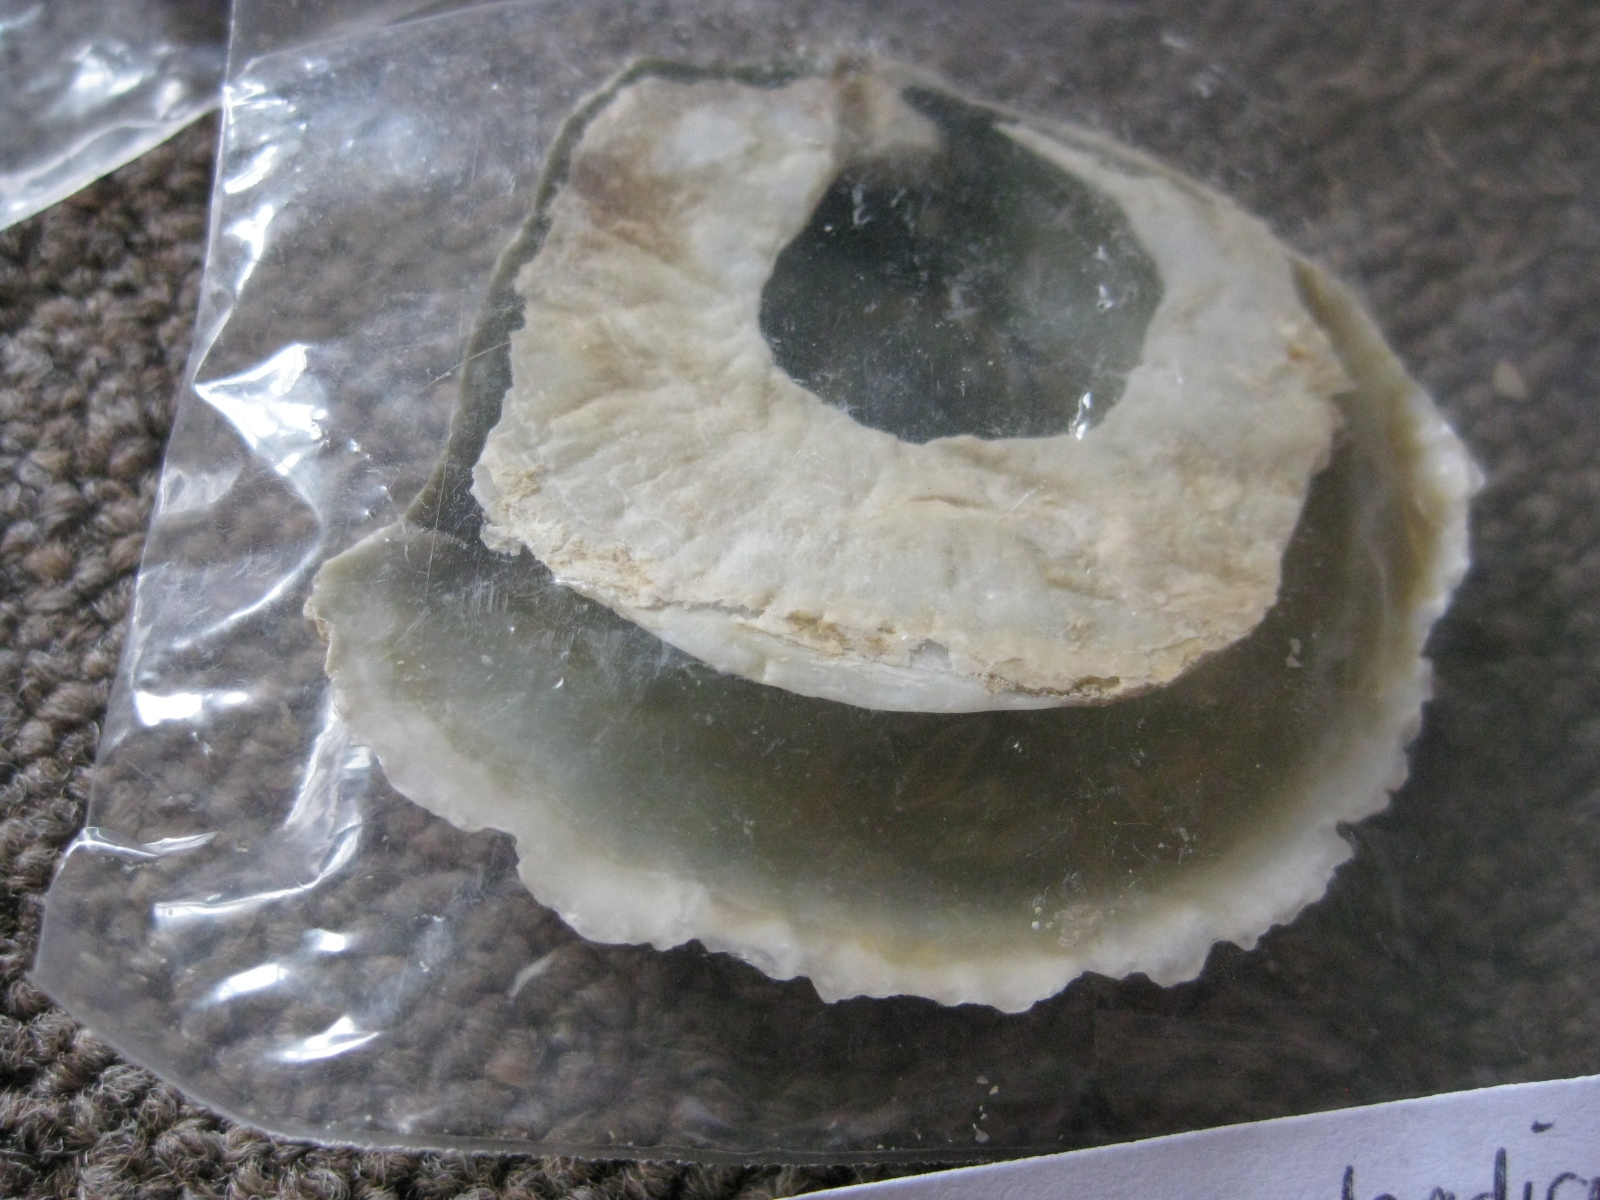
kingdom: Animalia
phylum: Mollusca
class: Bivalvia
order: Pectinida
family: Anomiidae
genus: Monia
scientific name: Monia zelandica
